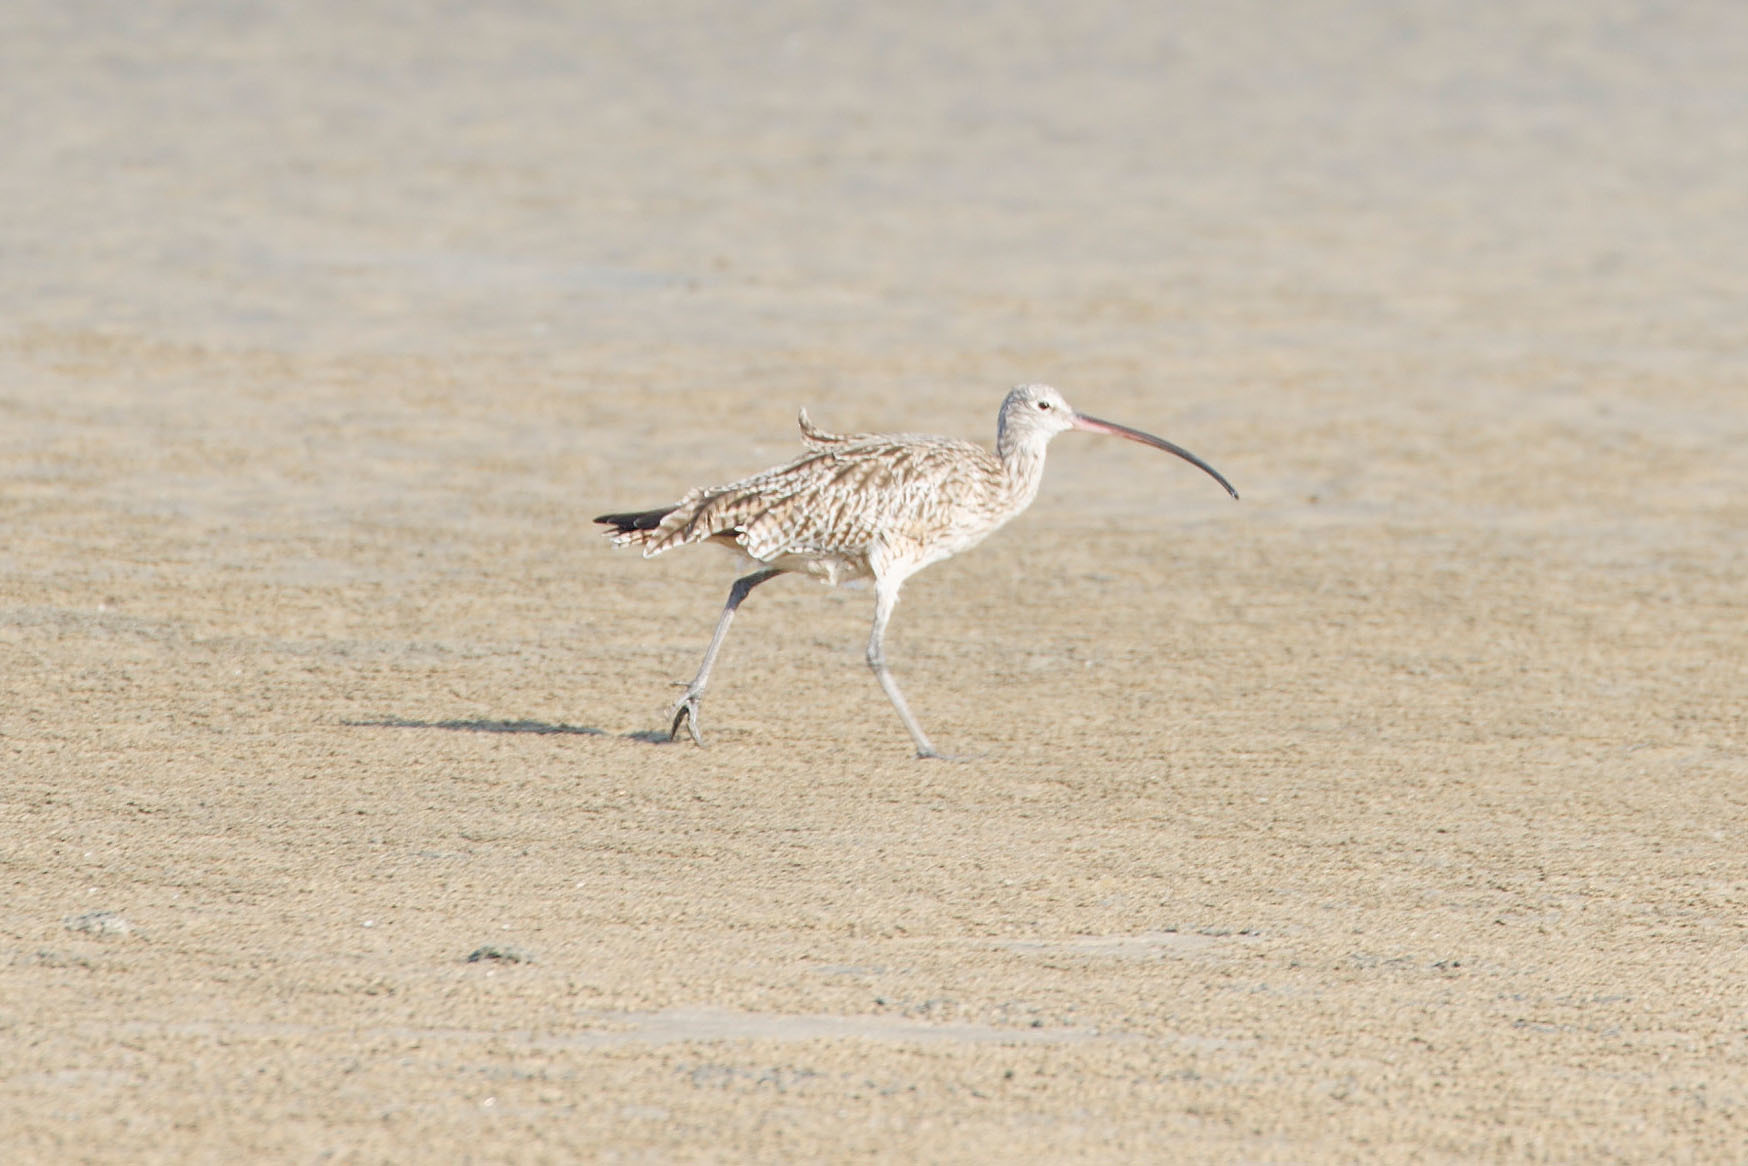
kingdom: Animalia
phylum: Chordata
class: Aves
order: Charadriiformes
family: Scolopacidae
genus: Numenius
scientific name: Numenius madagascariensis
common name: Far eastern curlew
